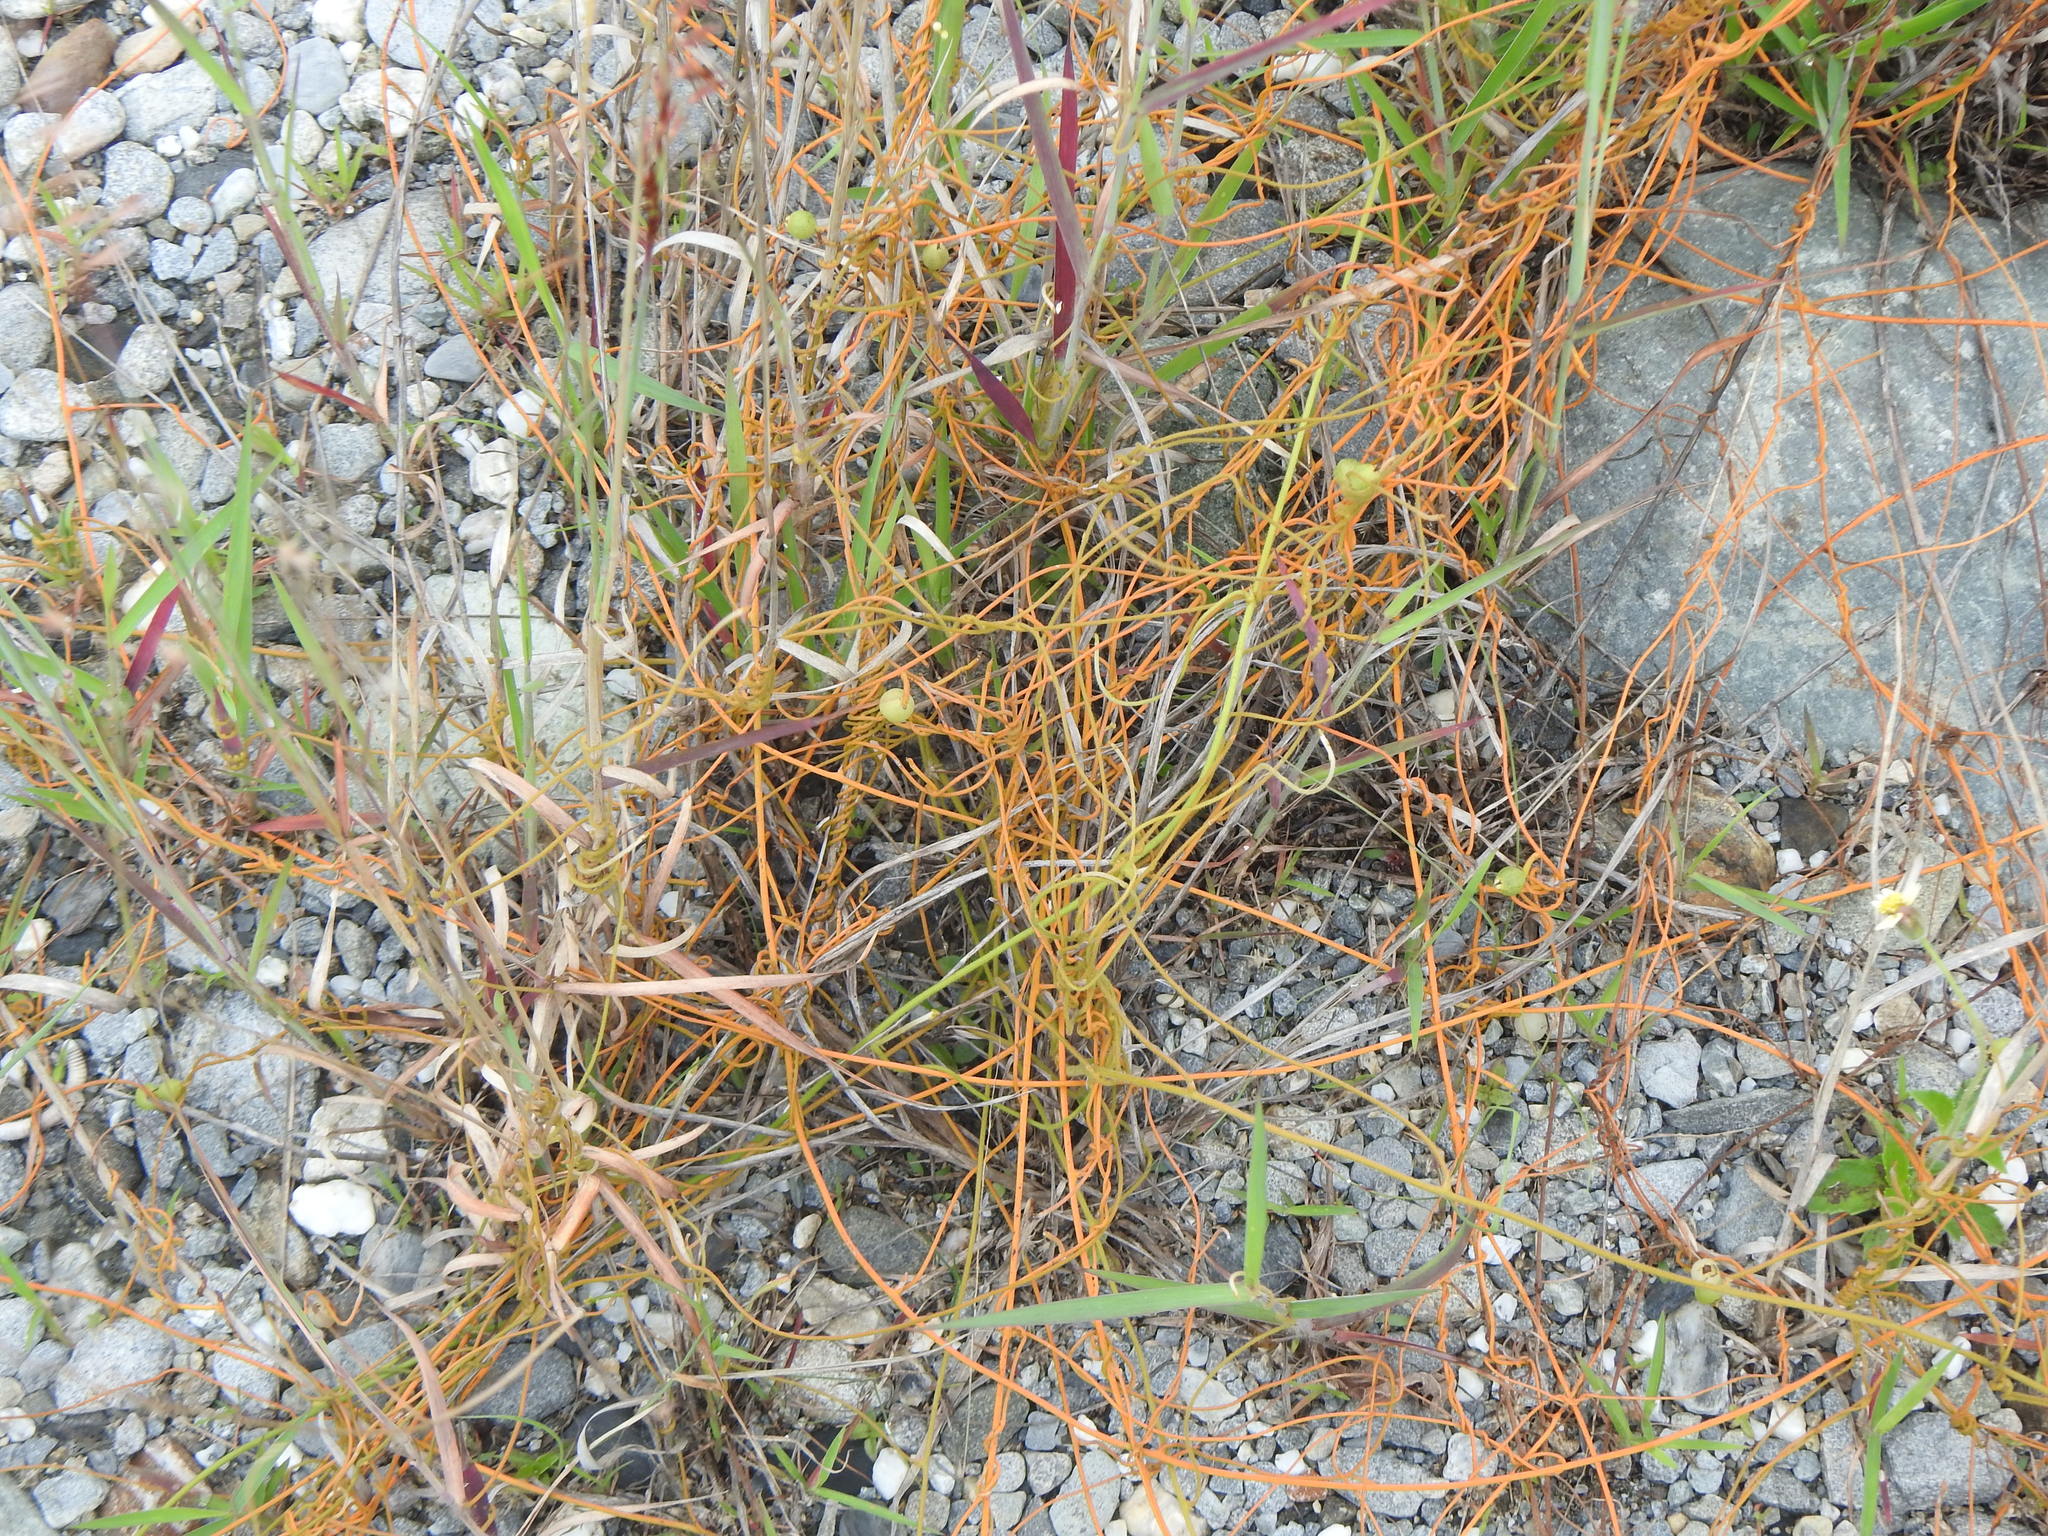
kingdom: Plantae
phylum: Tracheophyta
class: Magnoliopsida
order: Laurales
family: Lauraceae
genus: Cassytha
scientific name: Cassytha filiformis
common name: Dodder-laurel
